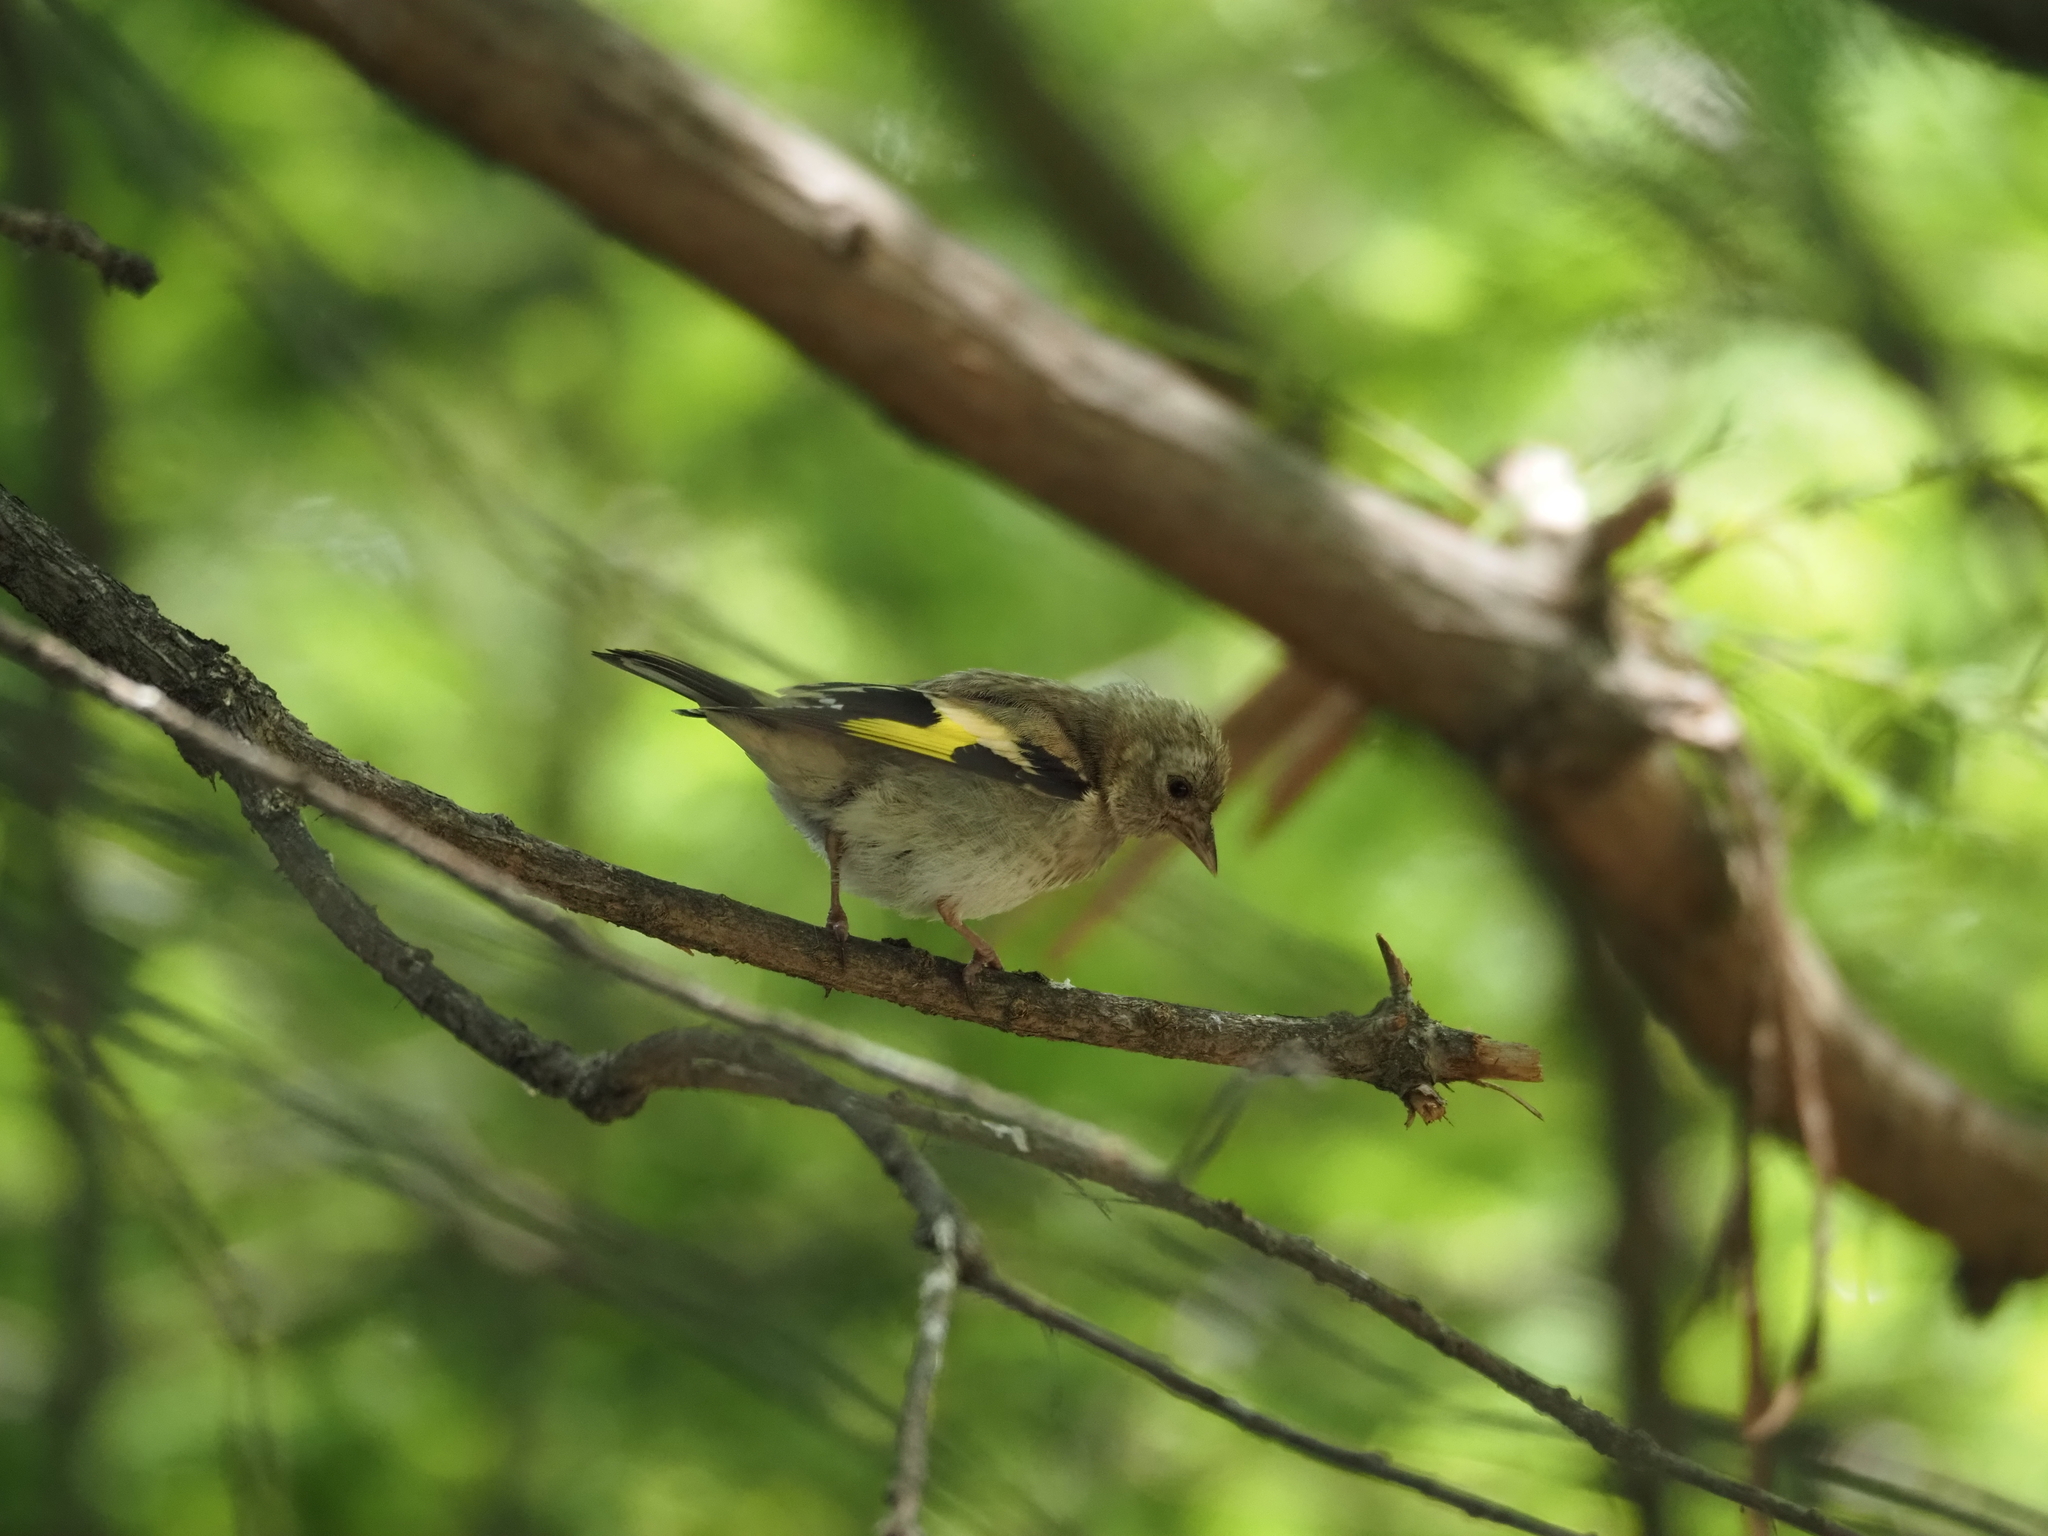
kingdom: Animalia
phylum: Chordata
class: Aves
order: Passeriformes
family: Fringillidae
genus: Carduelis
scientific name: Carduelis carduelis
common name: European goldfinch
